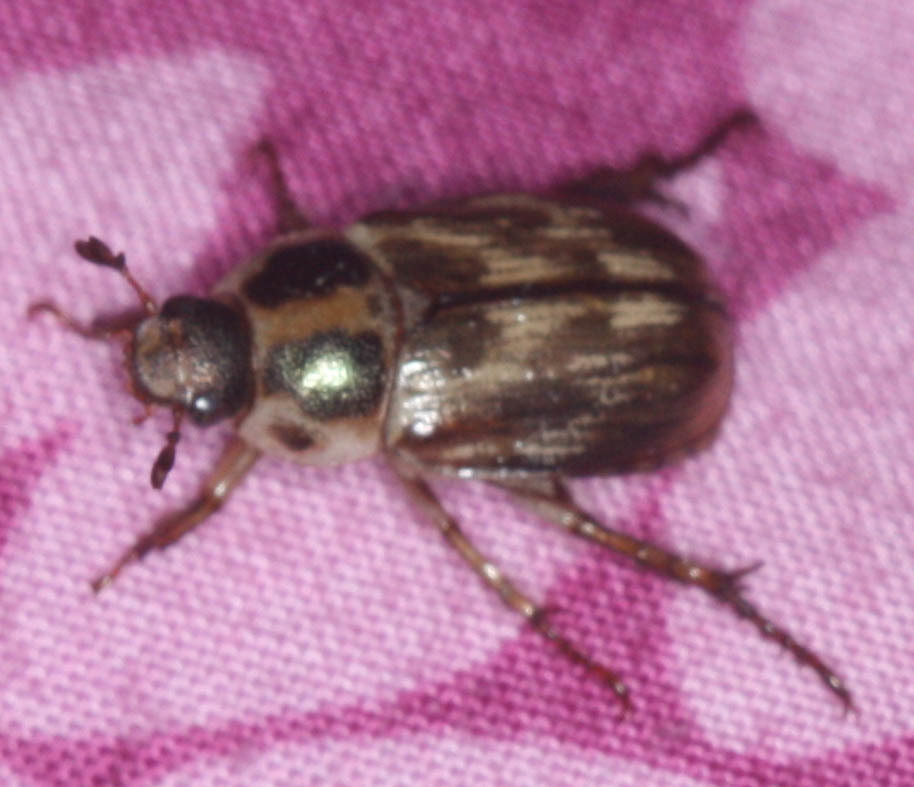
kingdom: Animalia
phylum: Arthropoda
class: Insecta
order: Coleoptera
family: Scarabaeidae
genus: Exomala
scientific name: Exomala orientalis
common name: Oriental beetle
